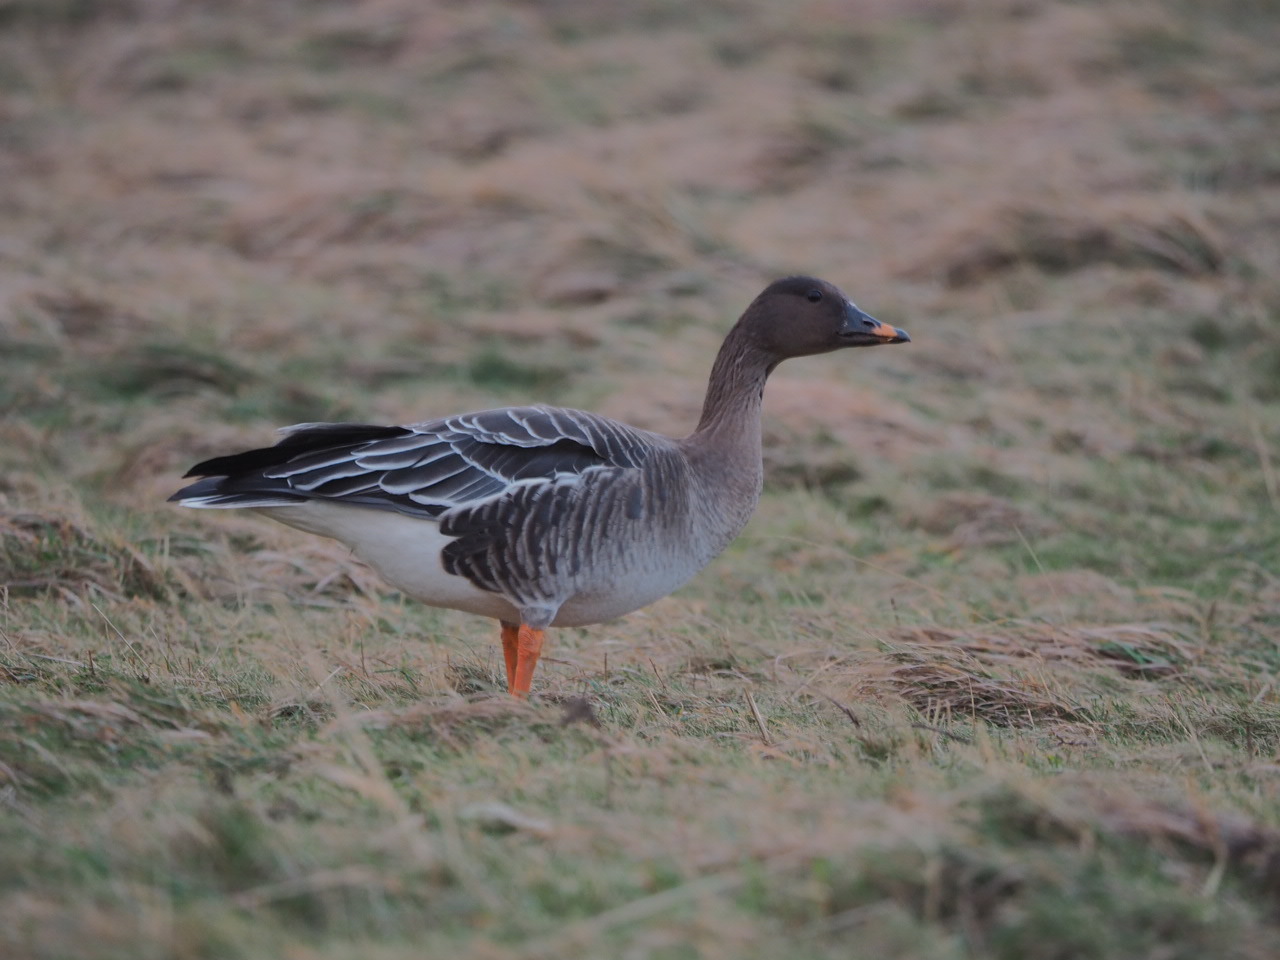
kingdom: Animalia
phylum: Chordata
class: Aves
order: Anseriformes
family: Anatidae
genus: Anser
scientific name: Anser serrirostris
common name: Tundra bean goose
